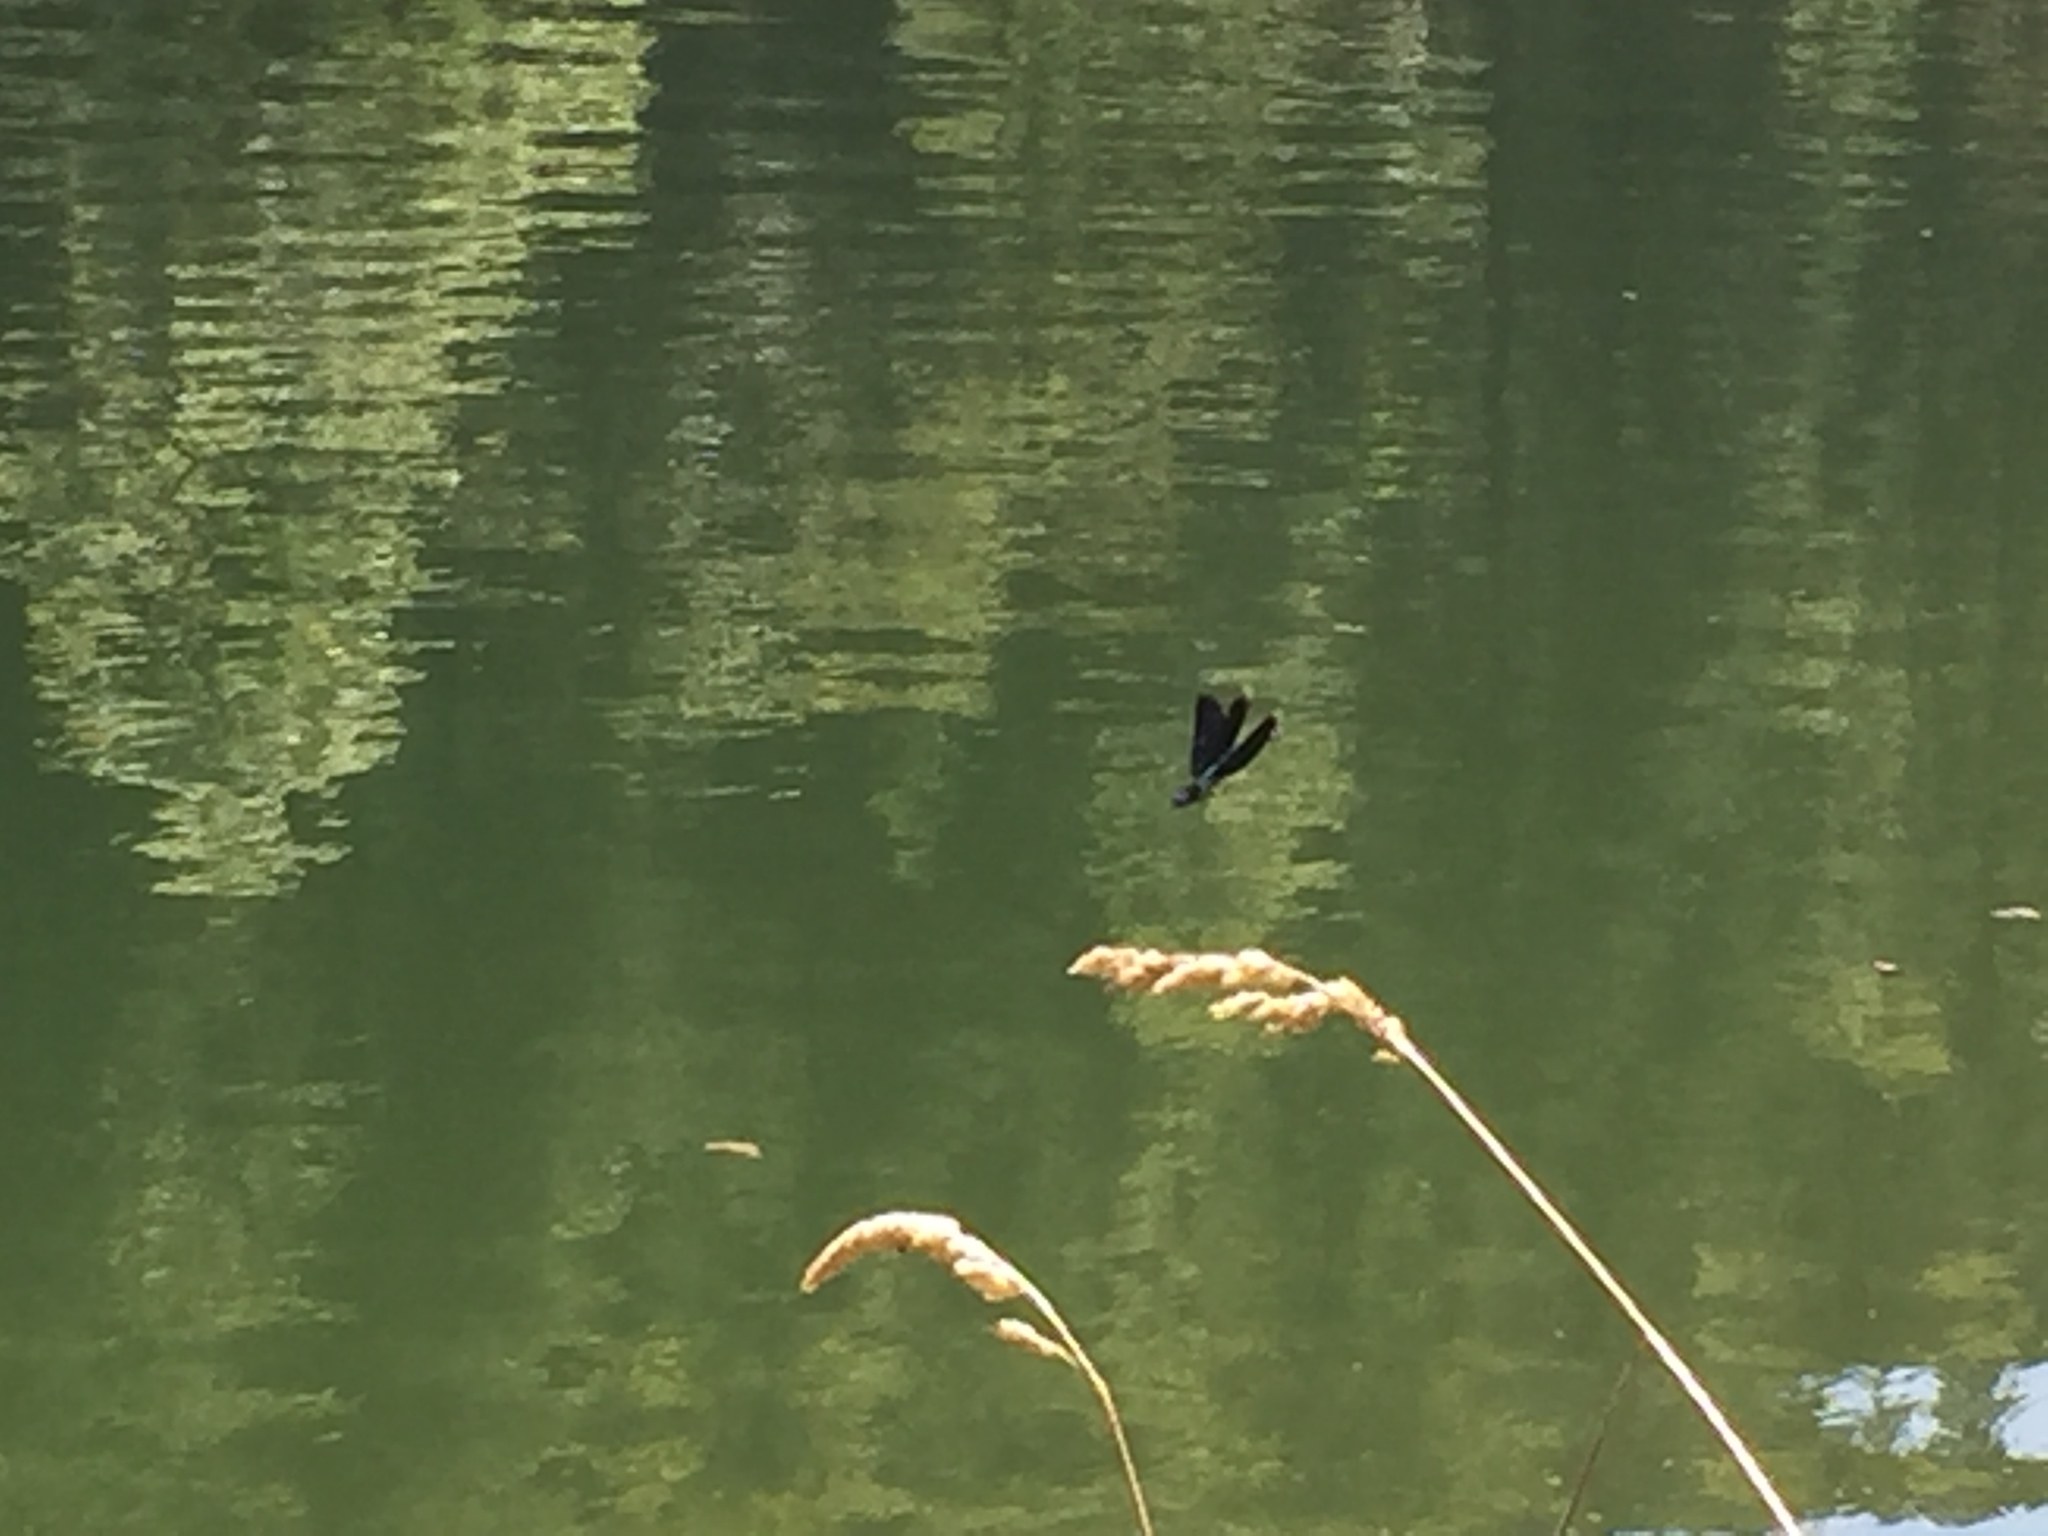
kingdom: Animalia
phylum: Arthropoda
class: Insecta
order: Odonata
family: Calopterygidae
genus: Calopteryx
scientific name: Calopteryx virgo
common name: Beautiful demoiselle
